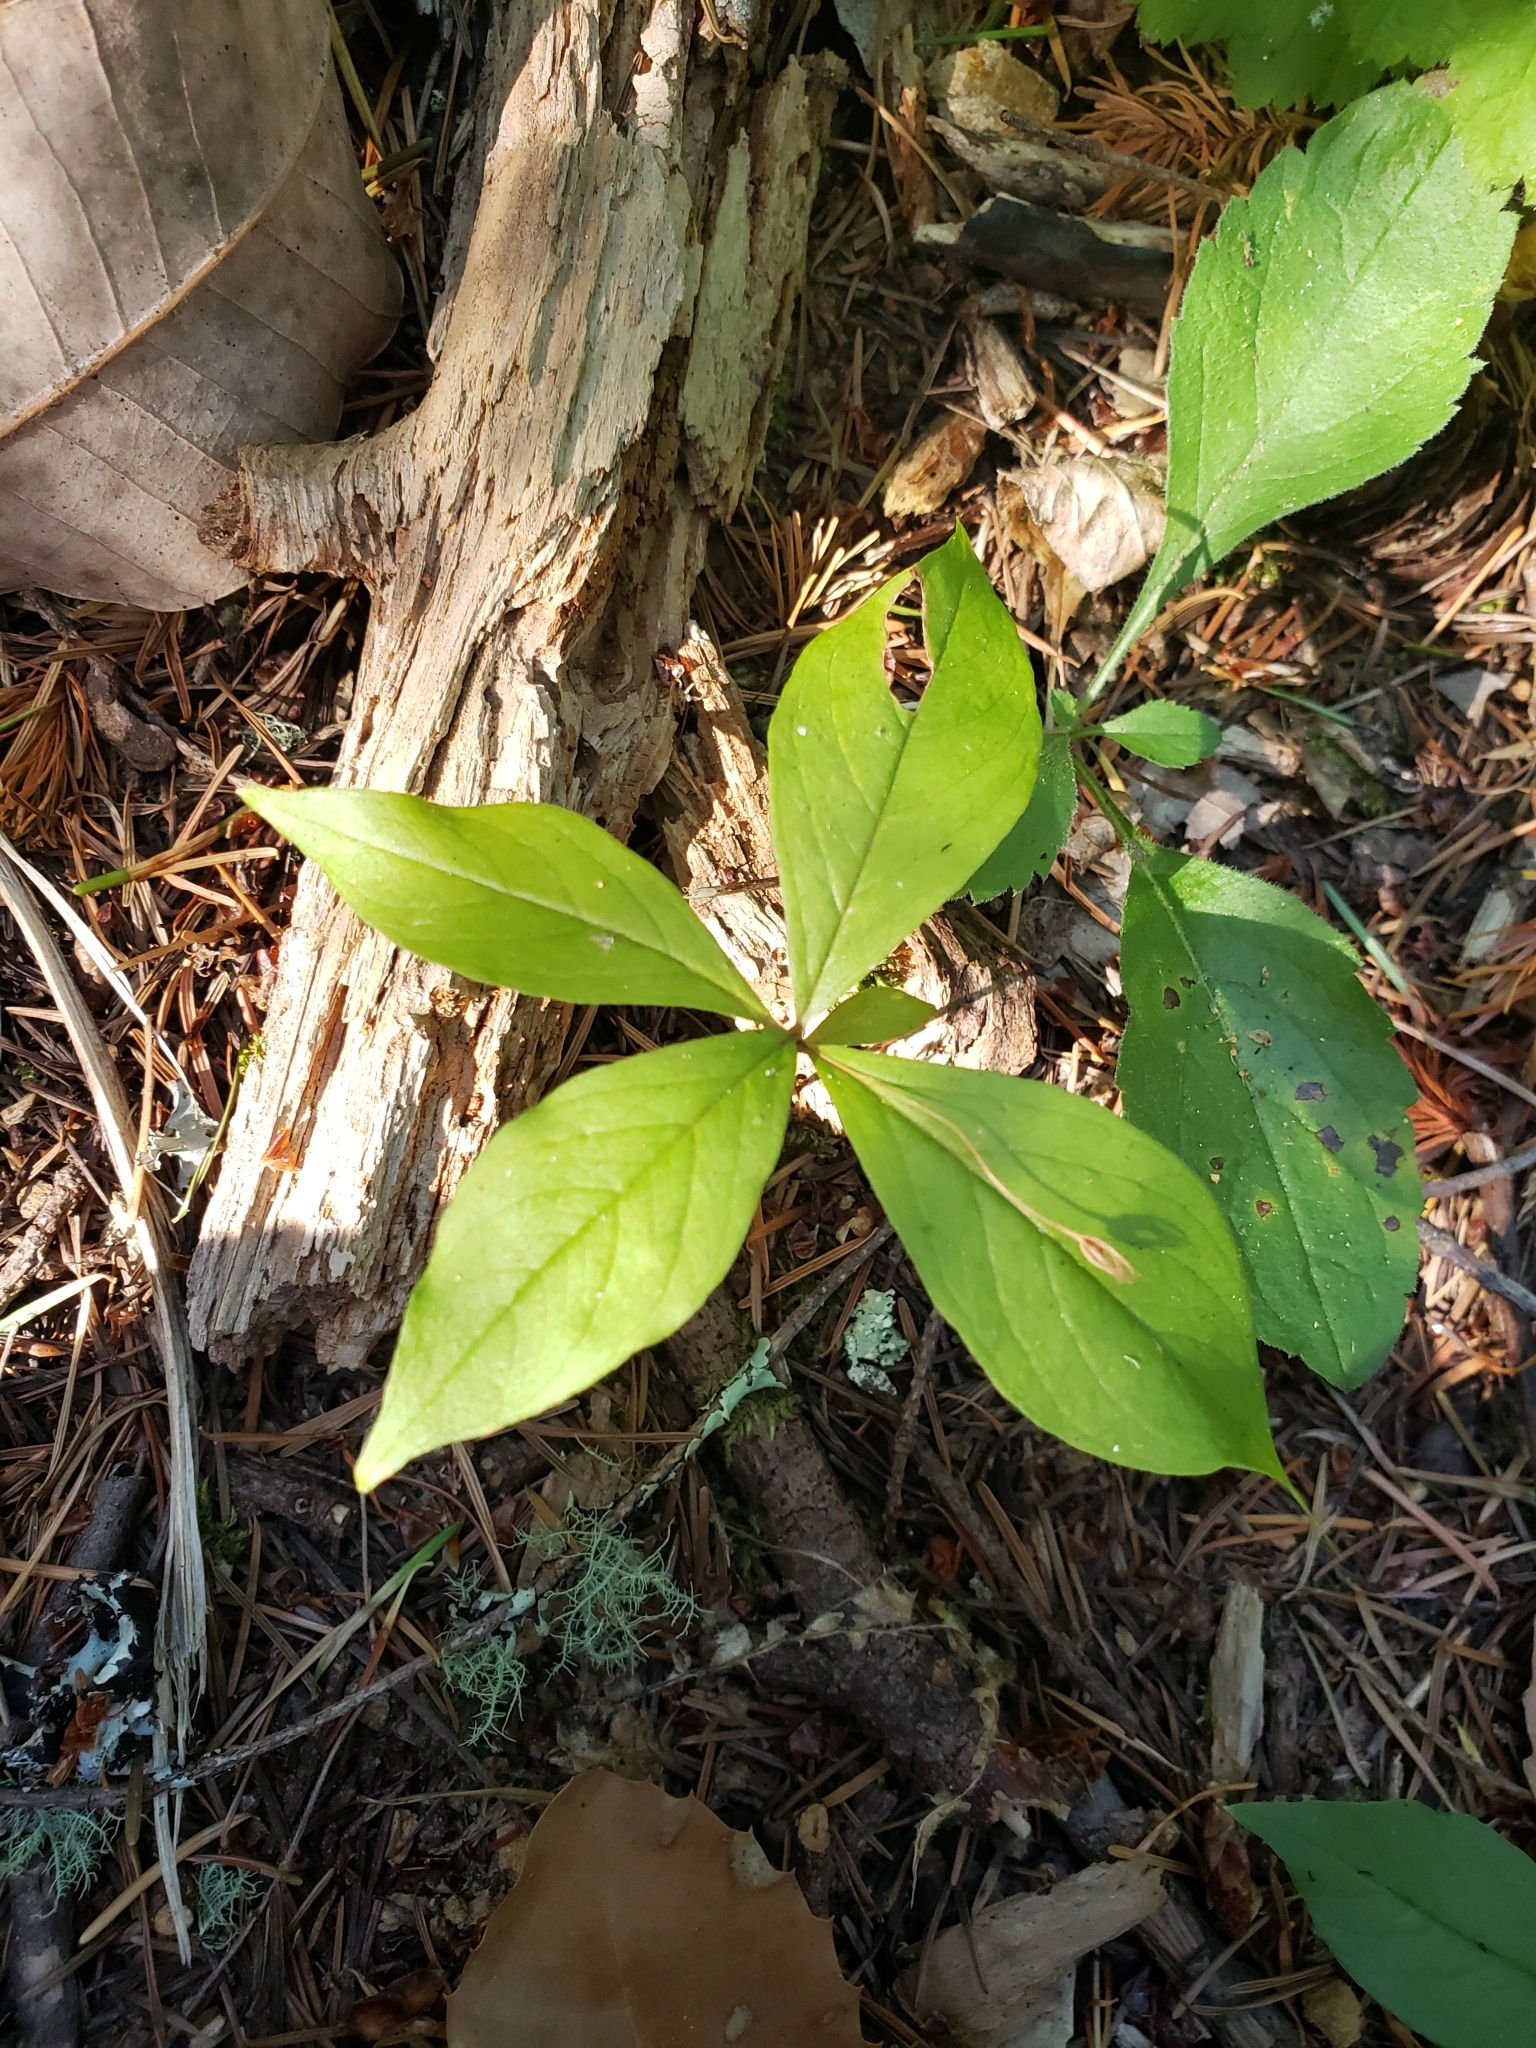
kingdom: Plantae
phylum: Tracheophyta
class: Magnoliopsida
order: Ericales
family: Primulaceae
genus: Lysimachia
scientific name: Lysimachia latifolia
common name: Pacific starflower
